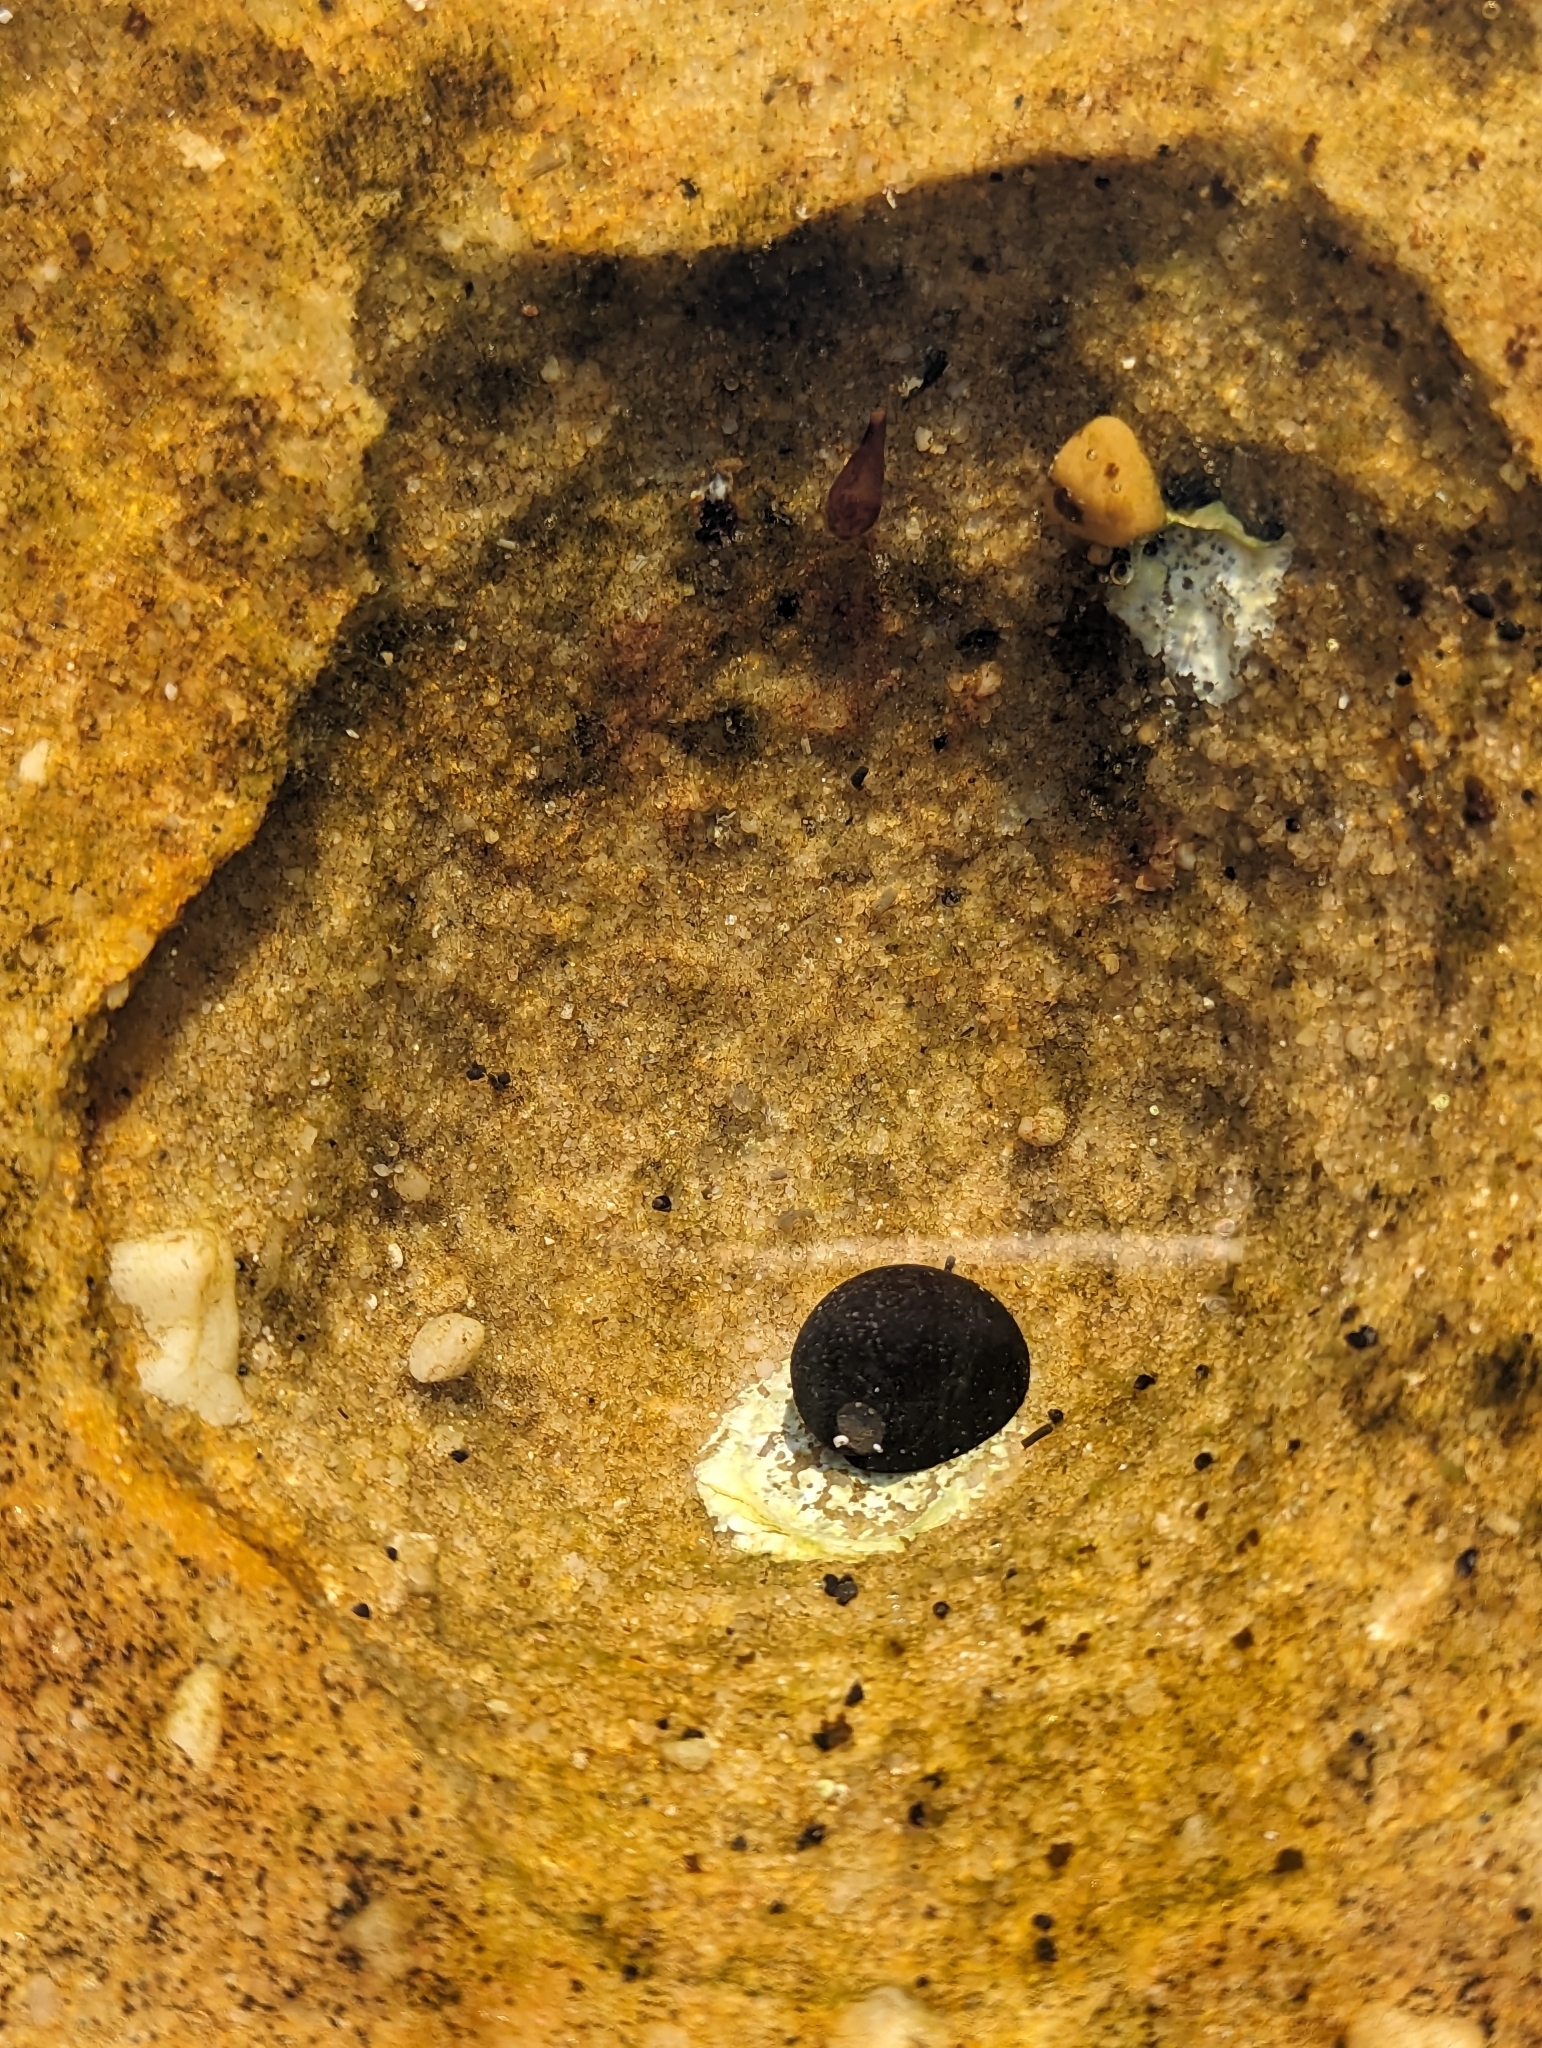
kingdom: Animalia
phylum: Mollusca
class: Gastropoda
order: Cycloneritida
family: Neritidae
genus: Nerita
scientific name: Nerita melanotragus
